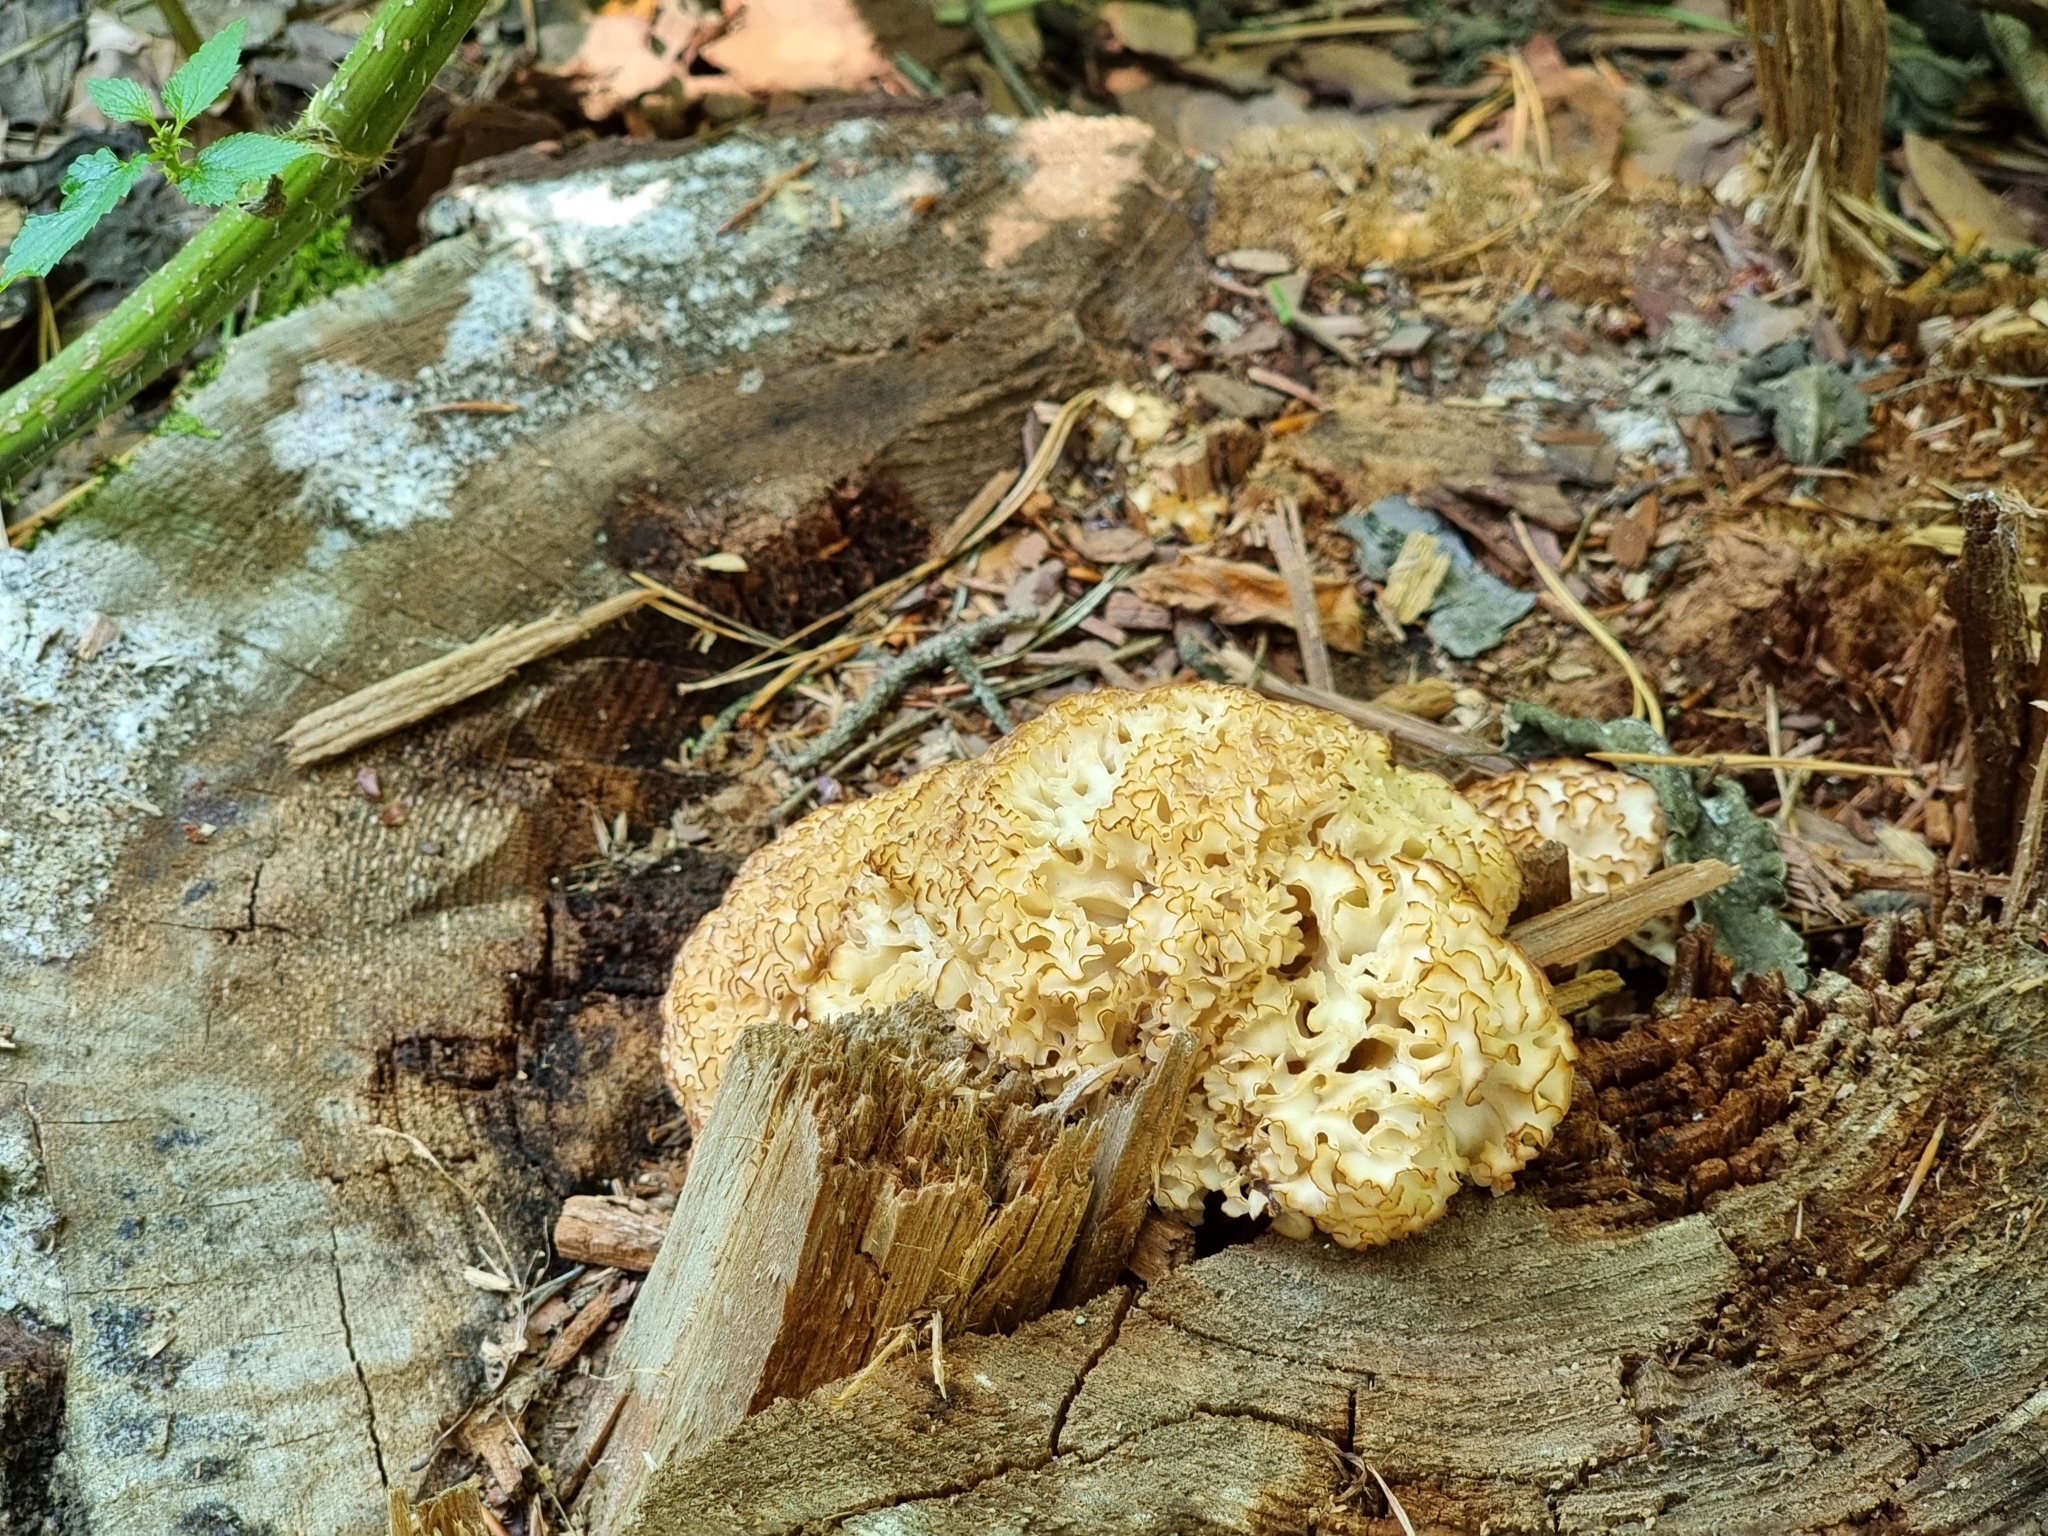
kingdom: Fungi
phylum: Basidiomycota
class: Agaricomycetes
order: Polyporales
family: Sparassidaceae
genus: Sparassis
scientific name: Sparassis crispa
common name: Brain fungus
